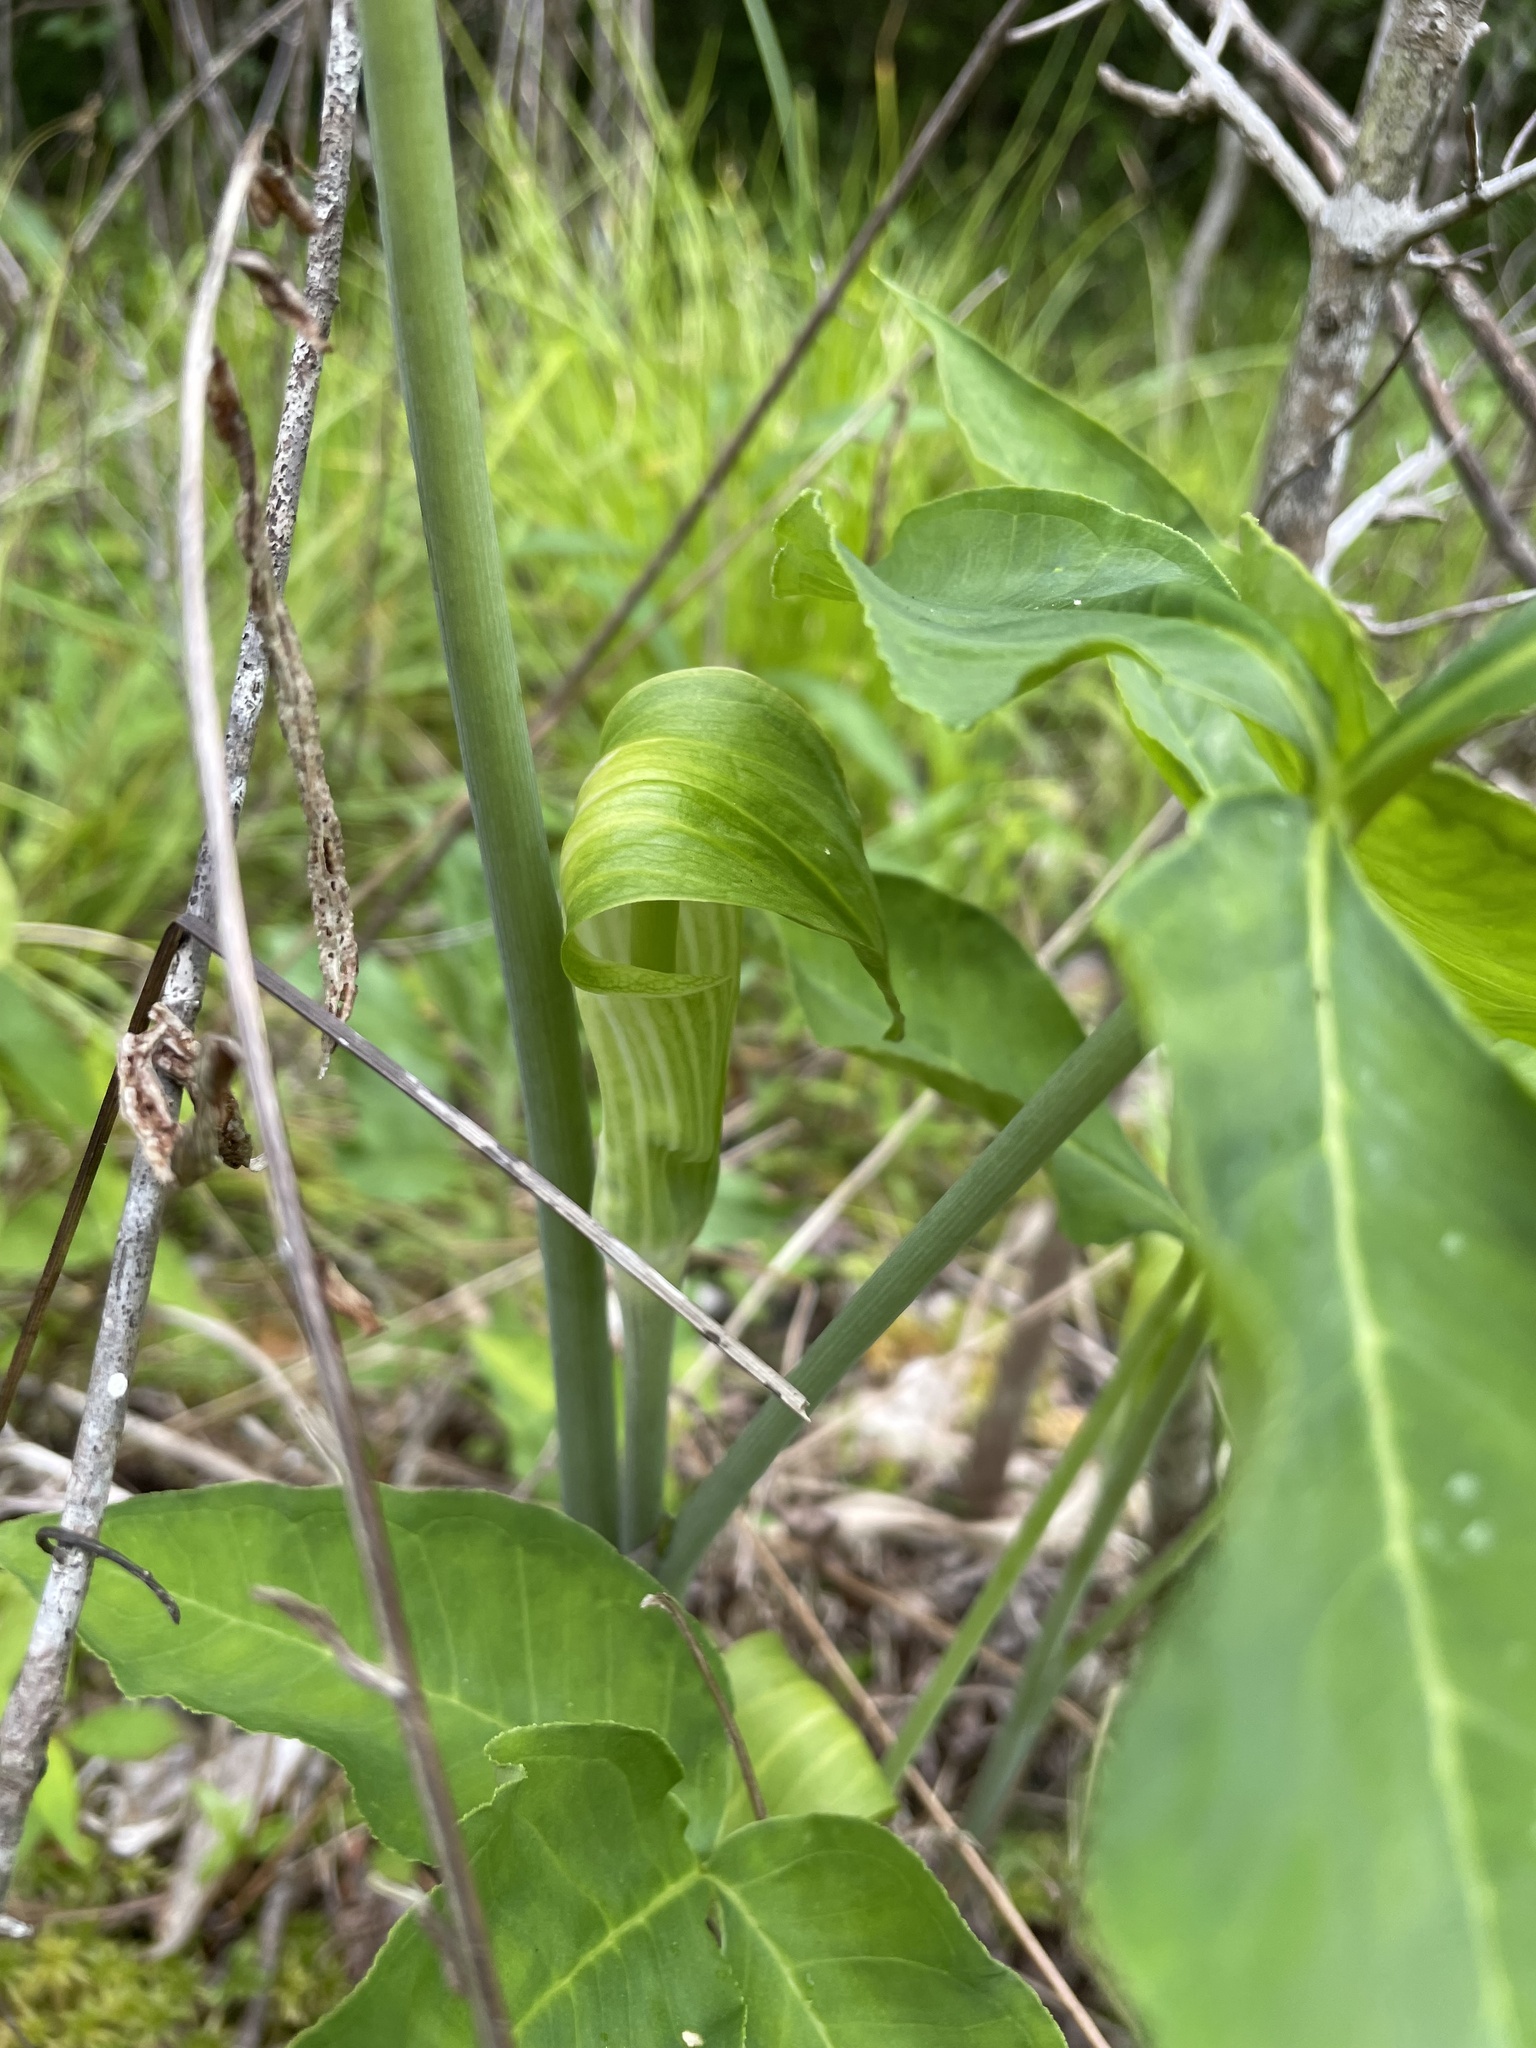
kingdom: Plantae
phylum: Tracheophyta
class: Liliopsida
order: Alismatales
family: Araceae
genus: Arisaema
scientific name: Arisaema triphyllum
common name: Jack-in-the-pulpit
